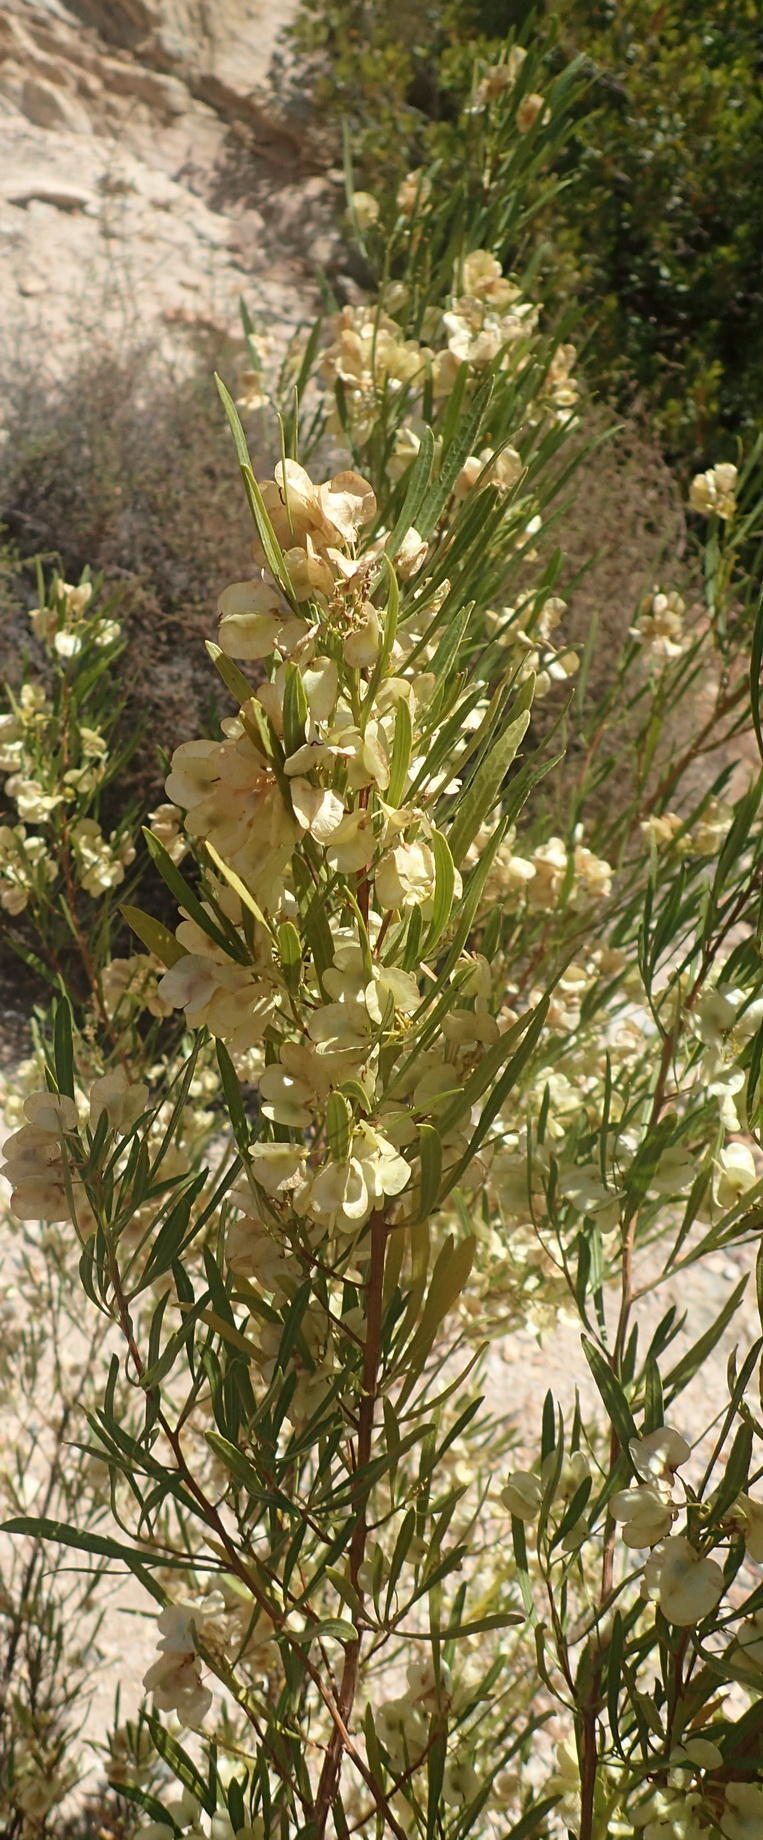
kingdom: Plantae
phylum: Tracheophyta
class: Magnoliopsida
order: Sapindales
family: Sapindaceae
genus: Dodonaea
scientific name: Dodonaea viscosa
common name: Hopbush
